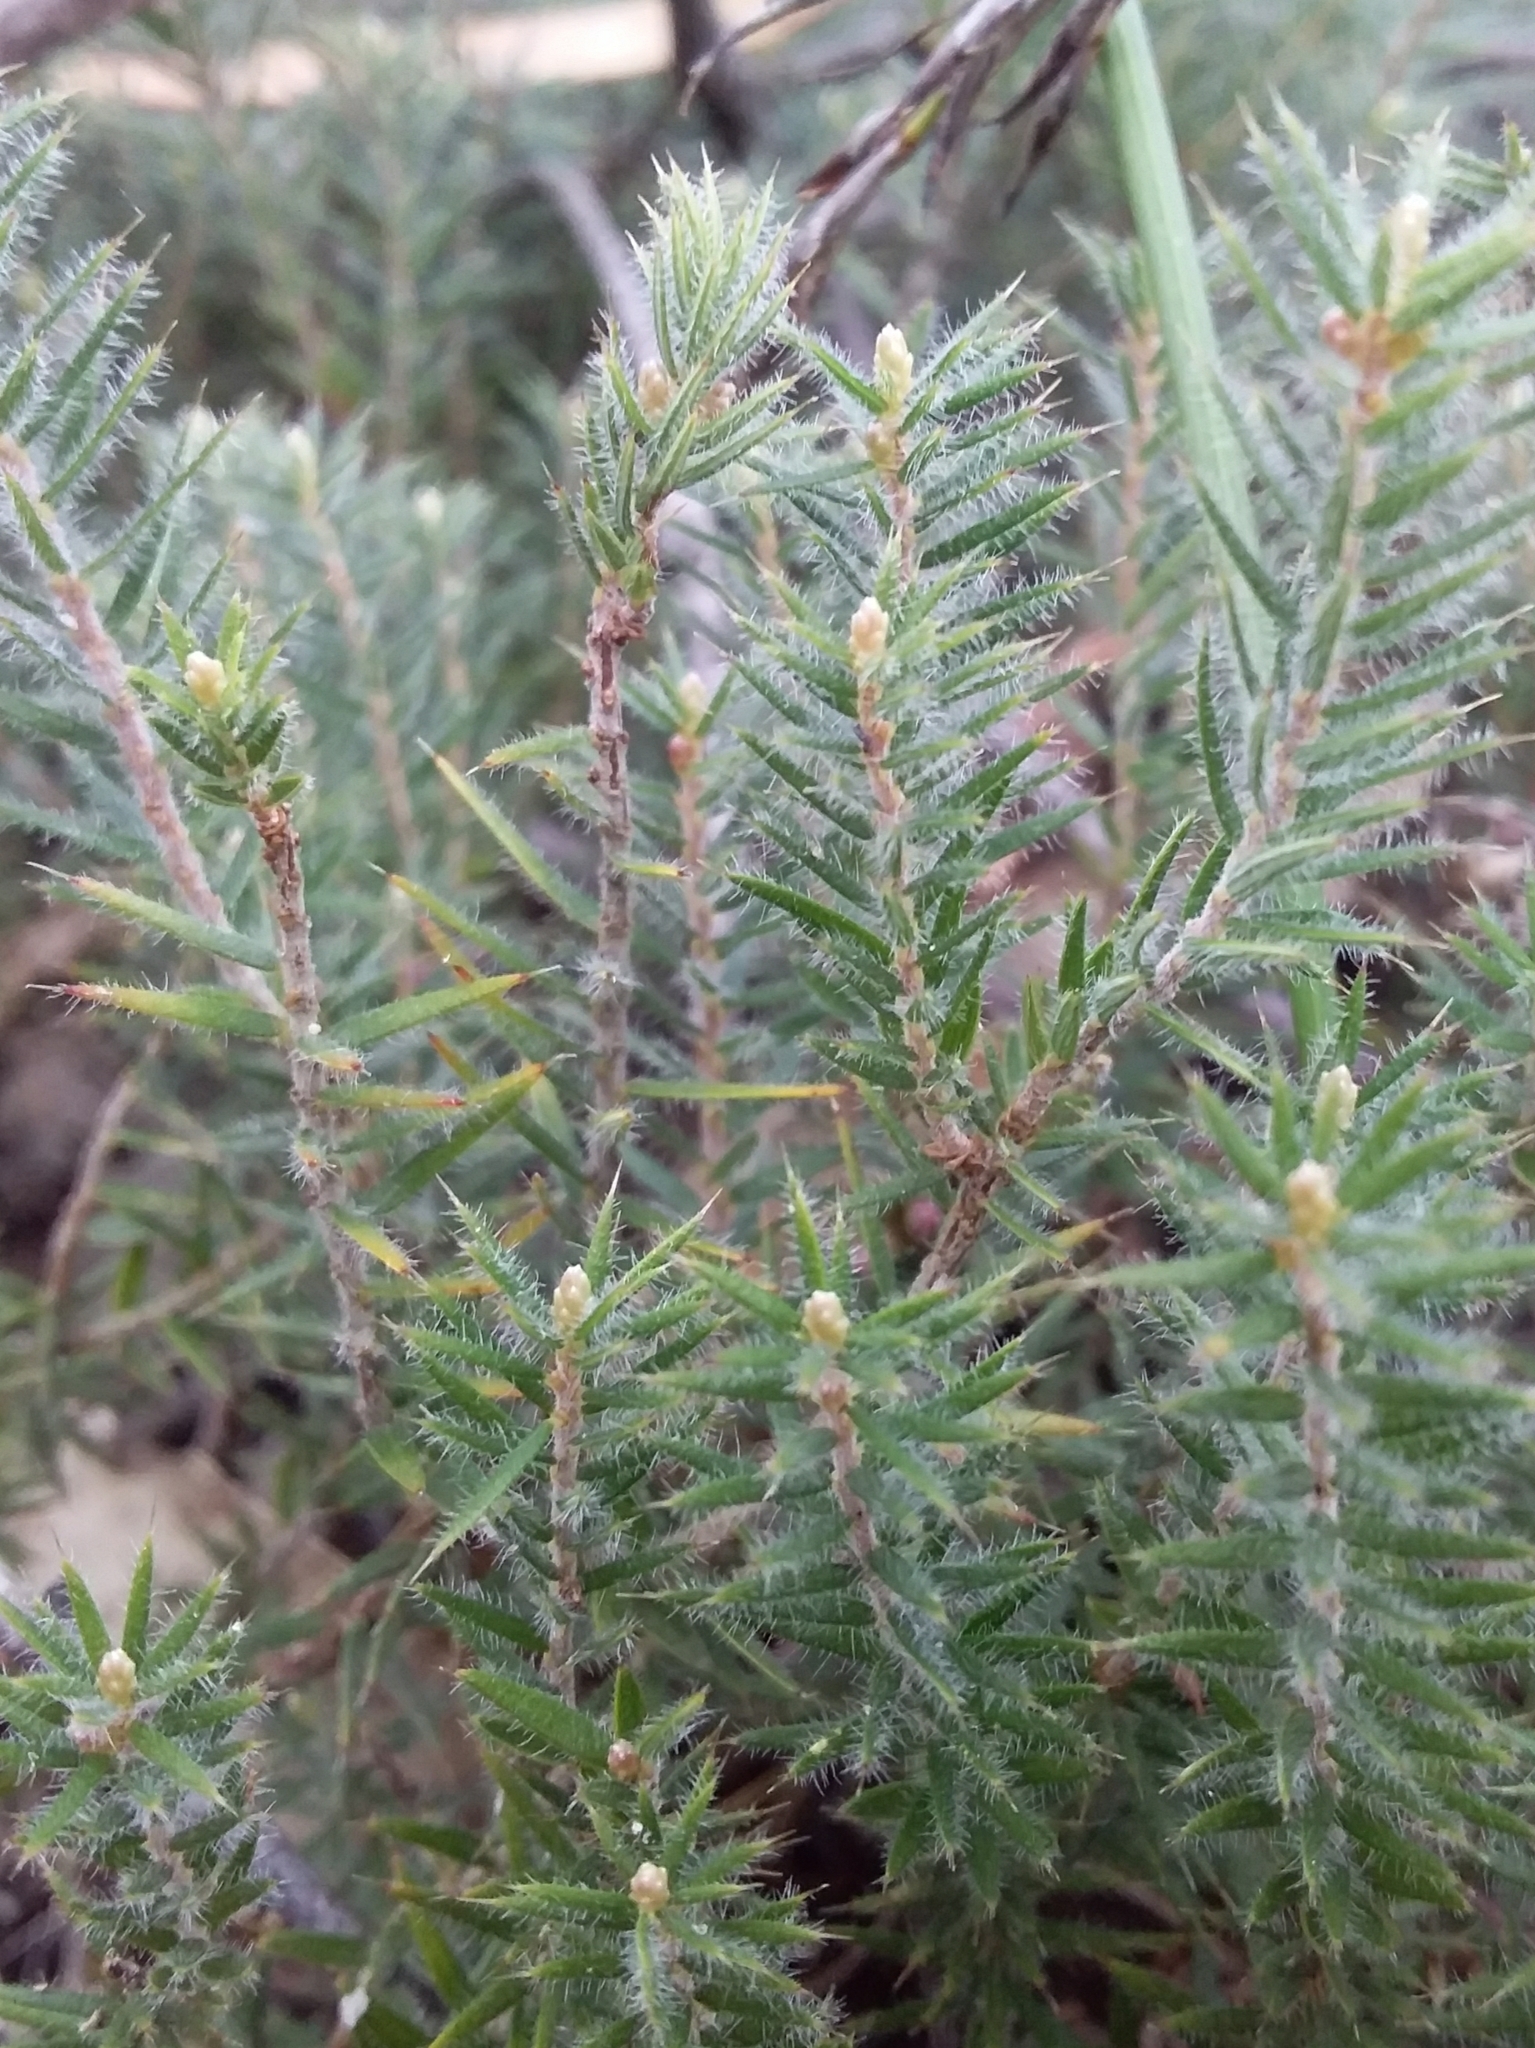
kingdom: Plantae
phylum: Tracheophyta
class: Magnoliopsida
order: Ericales
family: Ericaceae
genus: Acrotriche
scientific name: Acrotriche serrulata
